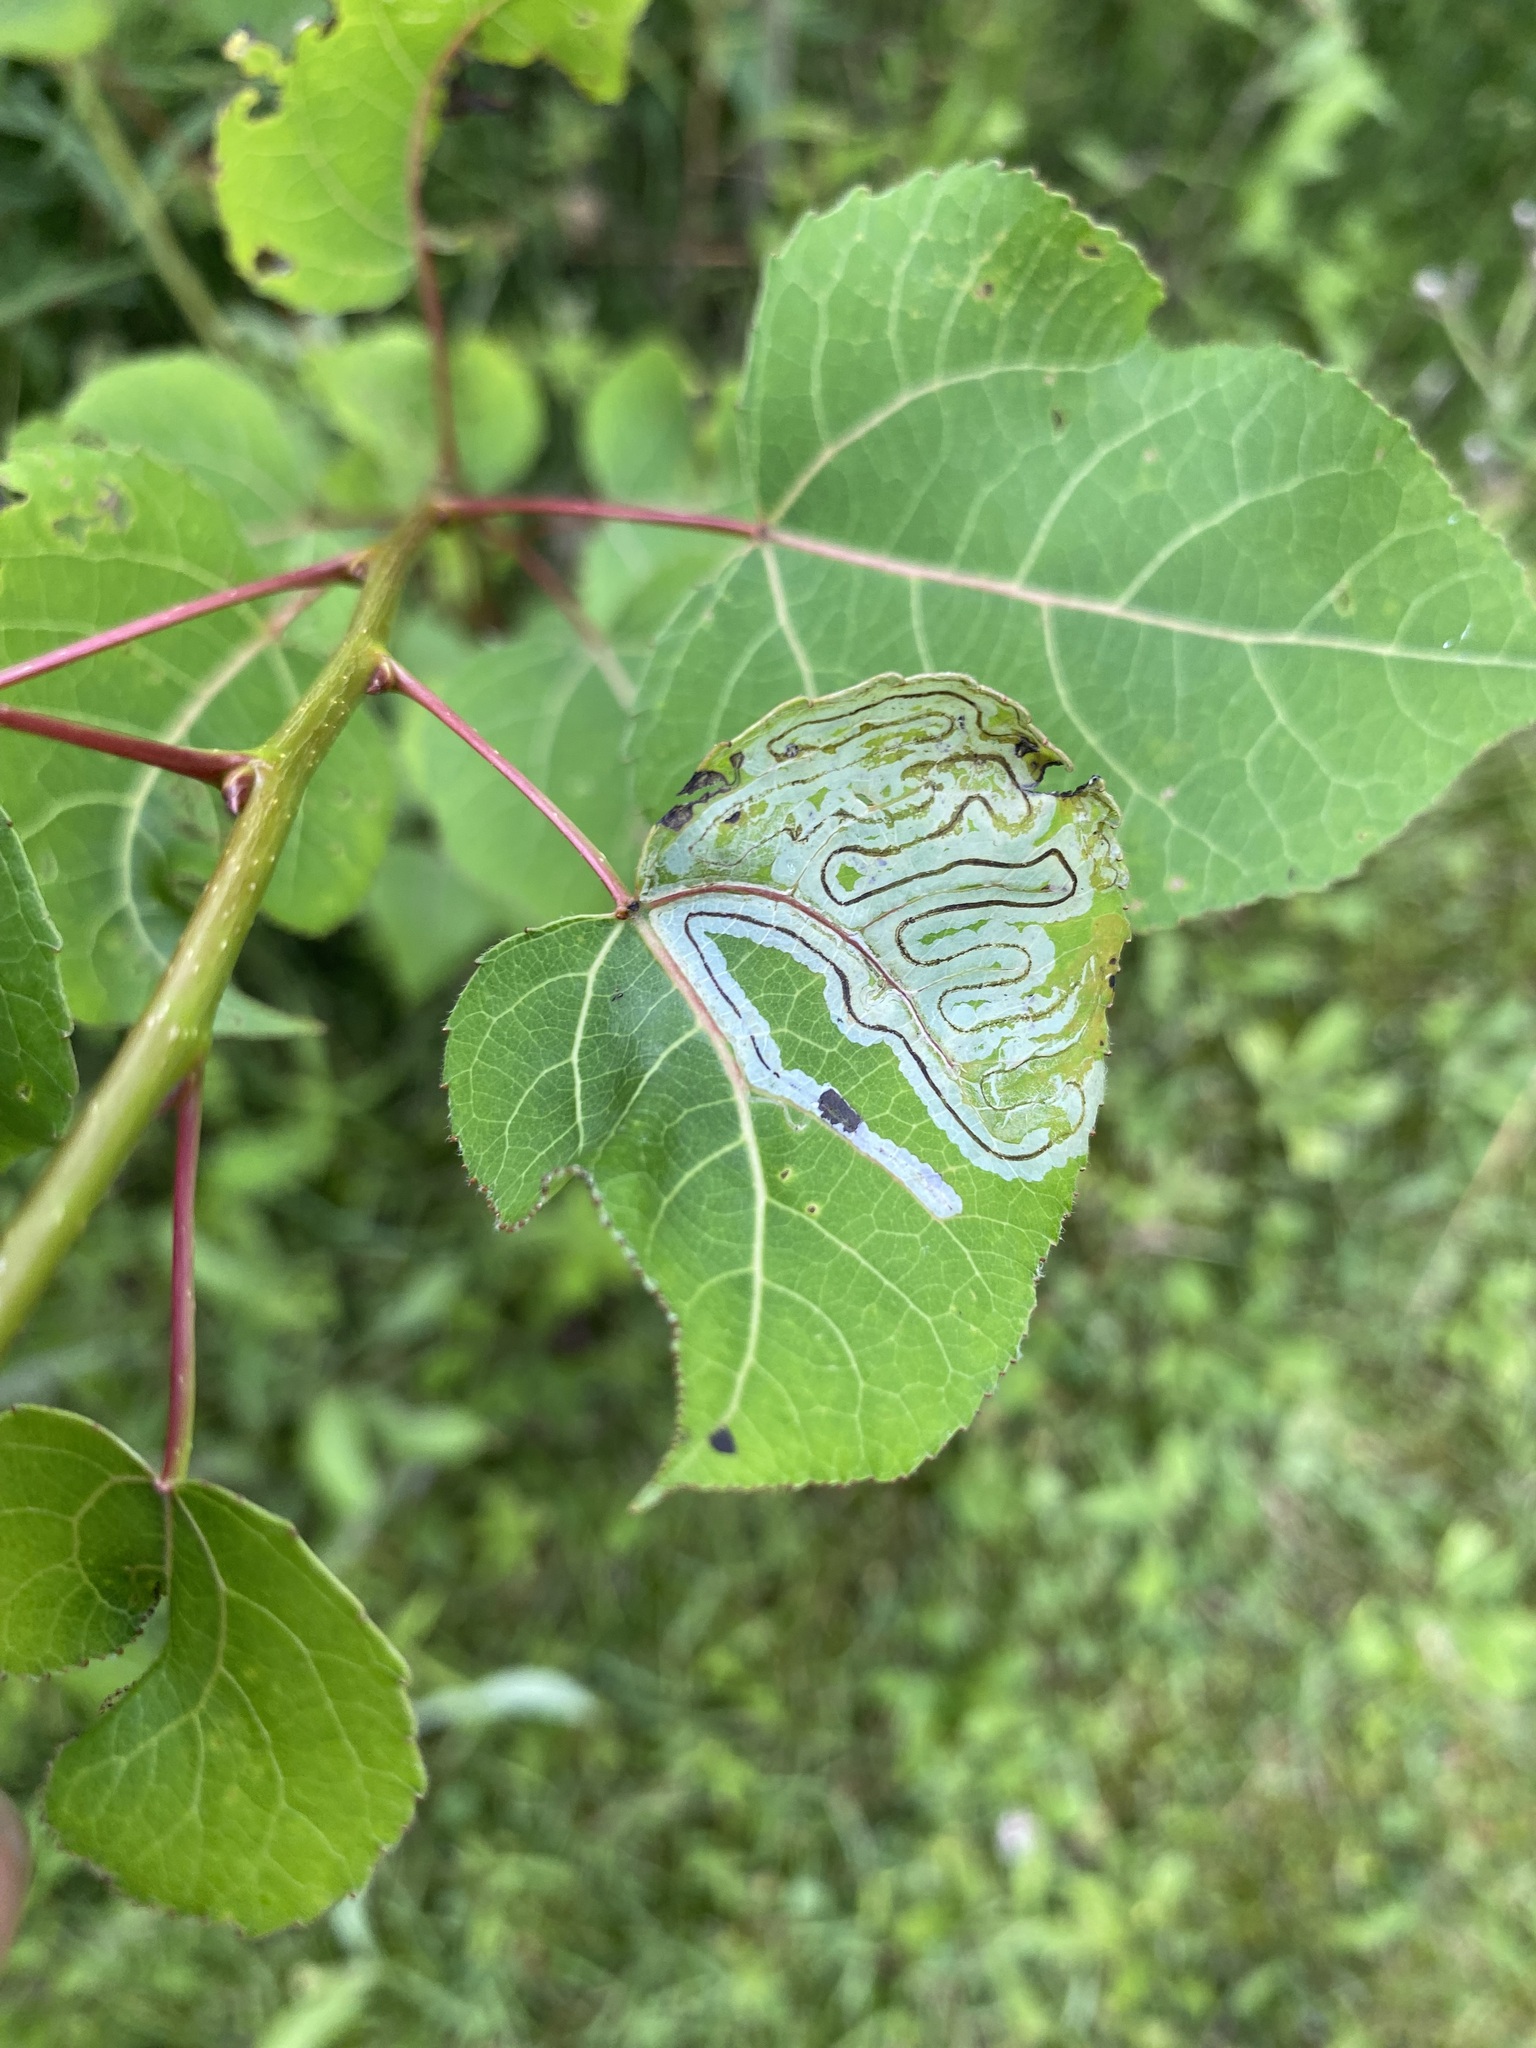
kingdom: Animalia
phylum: Arthropoda
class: Insecta
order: Lepidoptera
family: Gracillariidae
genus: Phyllocnistis
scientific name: Phyllocnistis populiella
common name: Aspen serpentine leafminer moth
